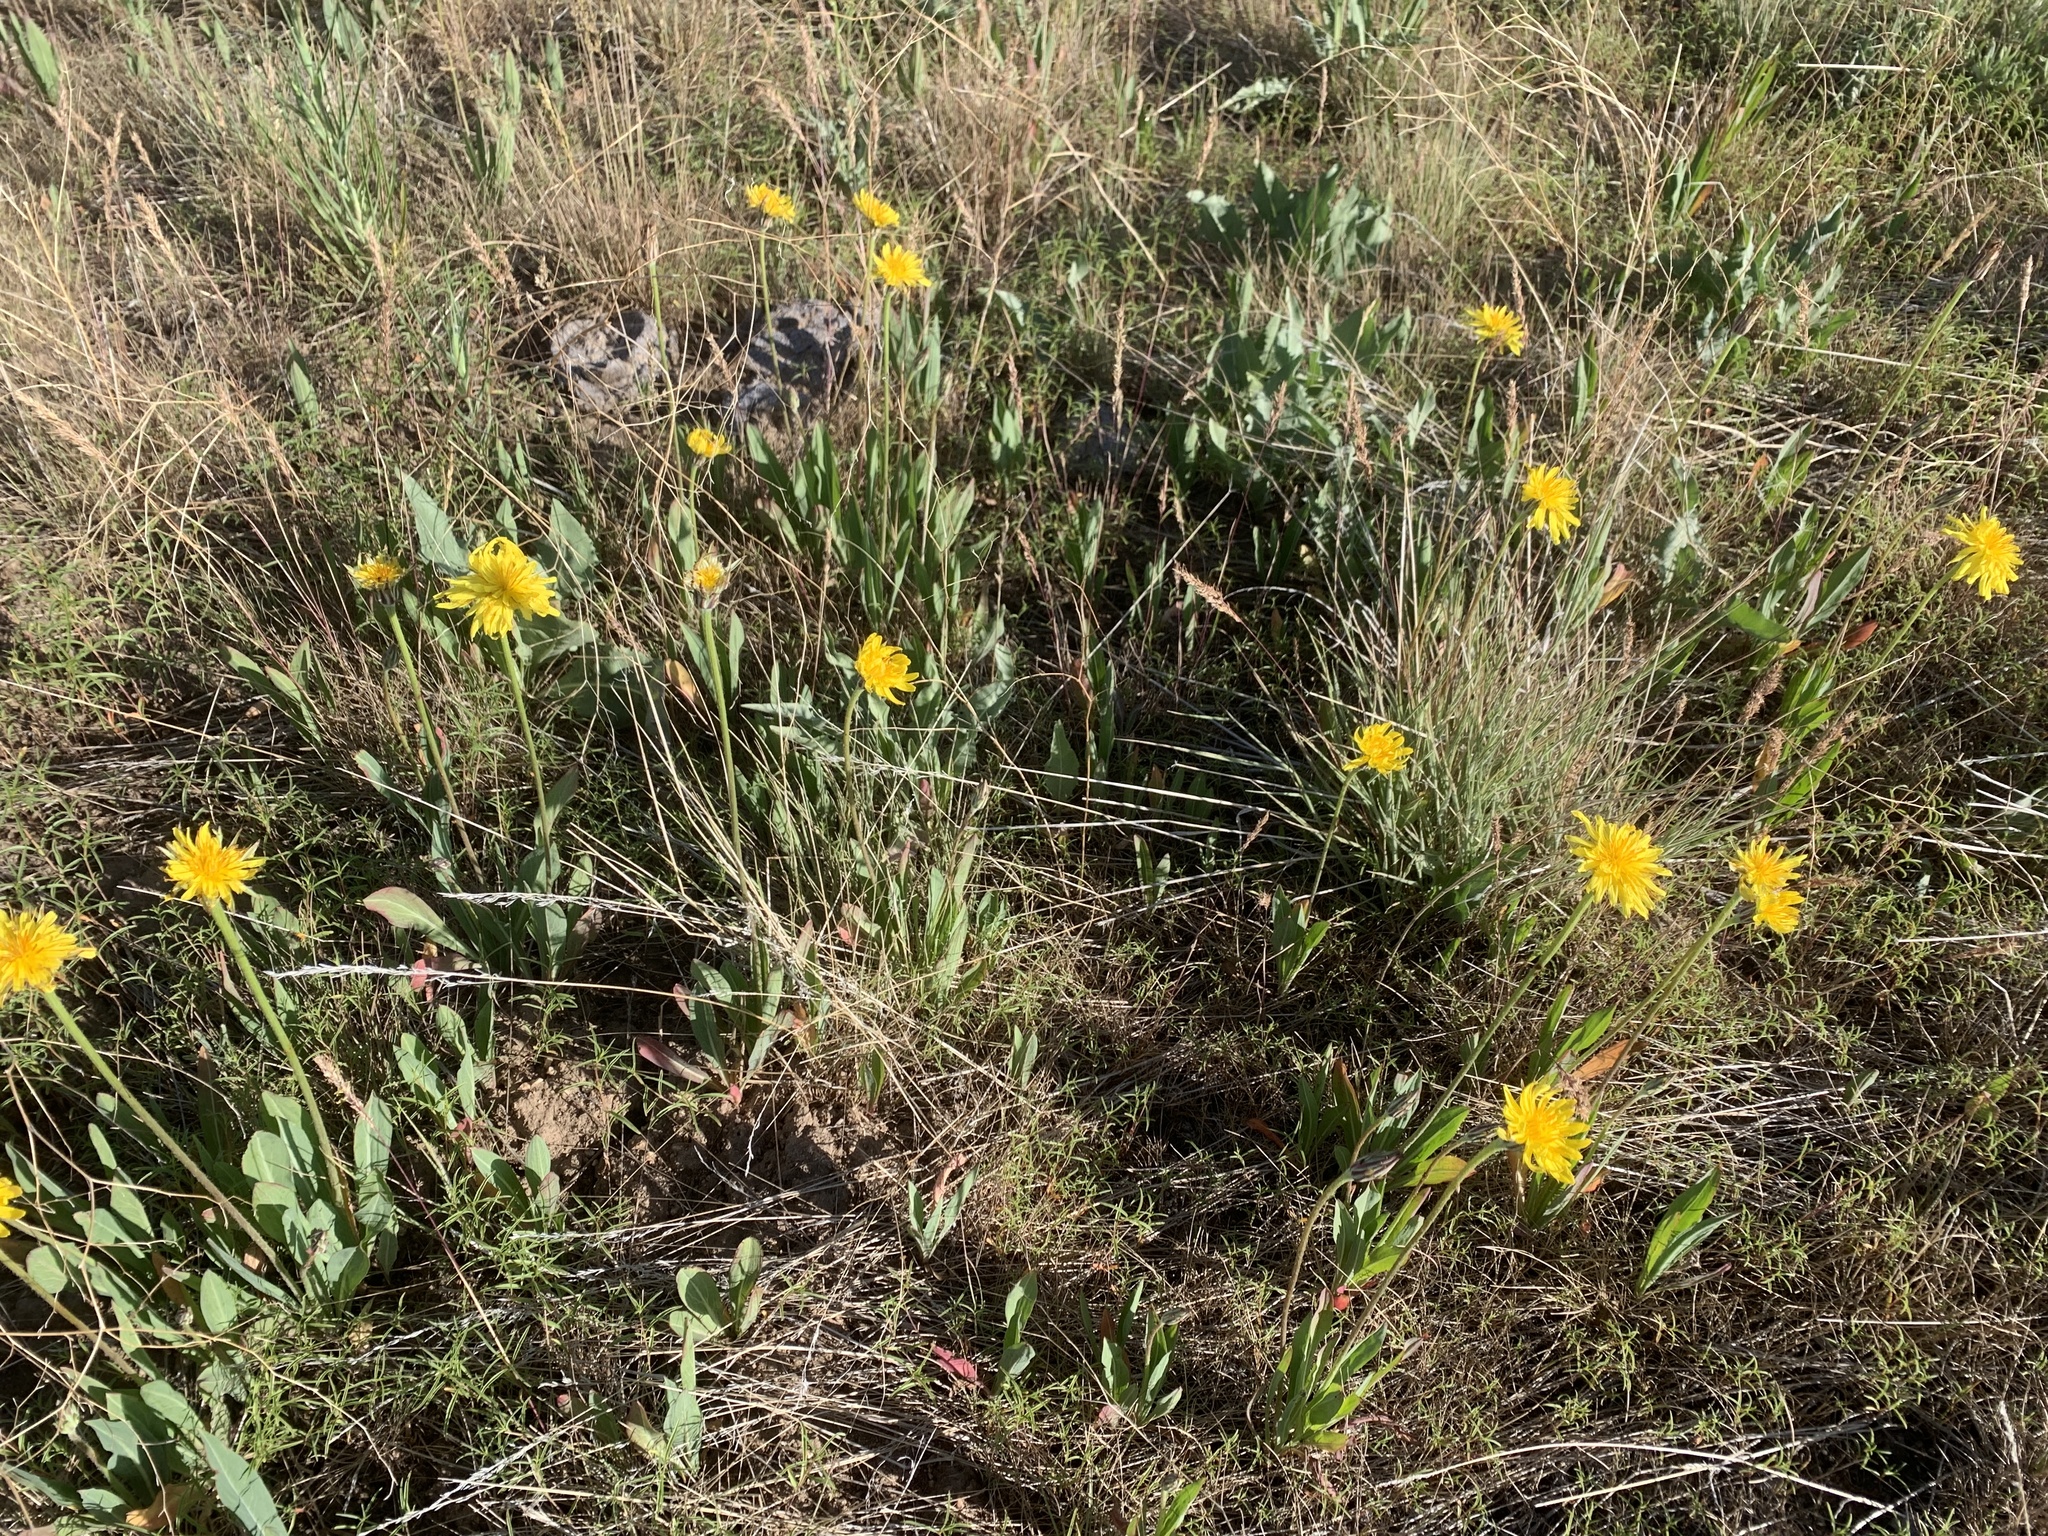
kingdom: Plantae
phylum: Tracheophyta
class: Magnoliopsida
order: Asterales
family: Asteraceae
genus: Agoseris
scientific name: Agoseris glauca
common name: Prairie agoseris
